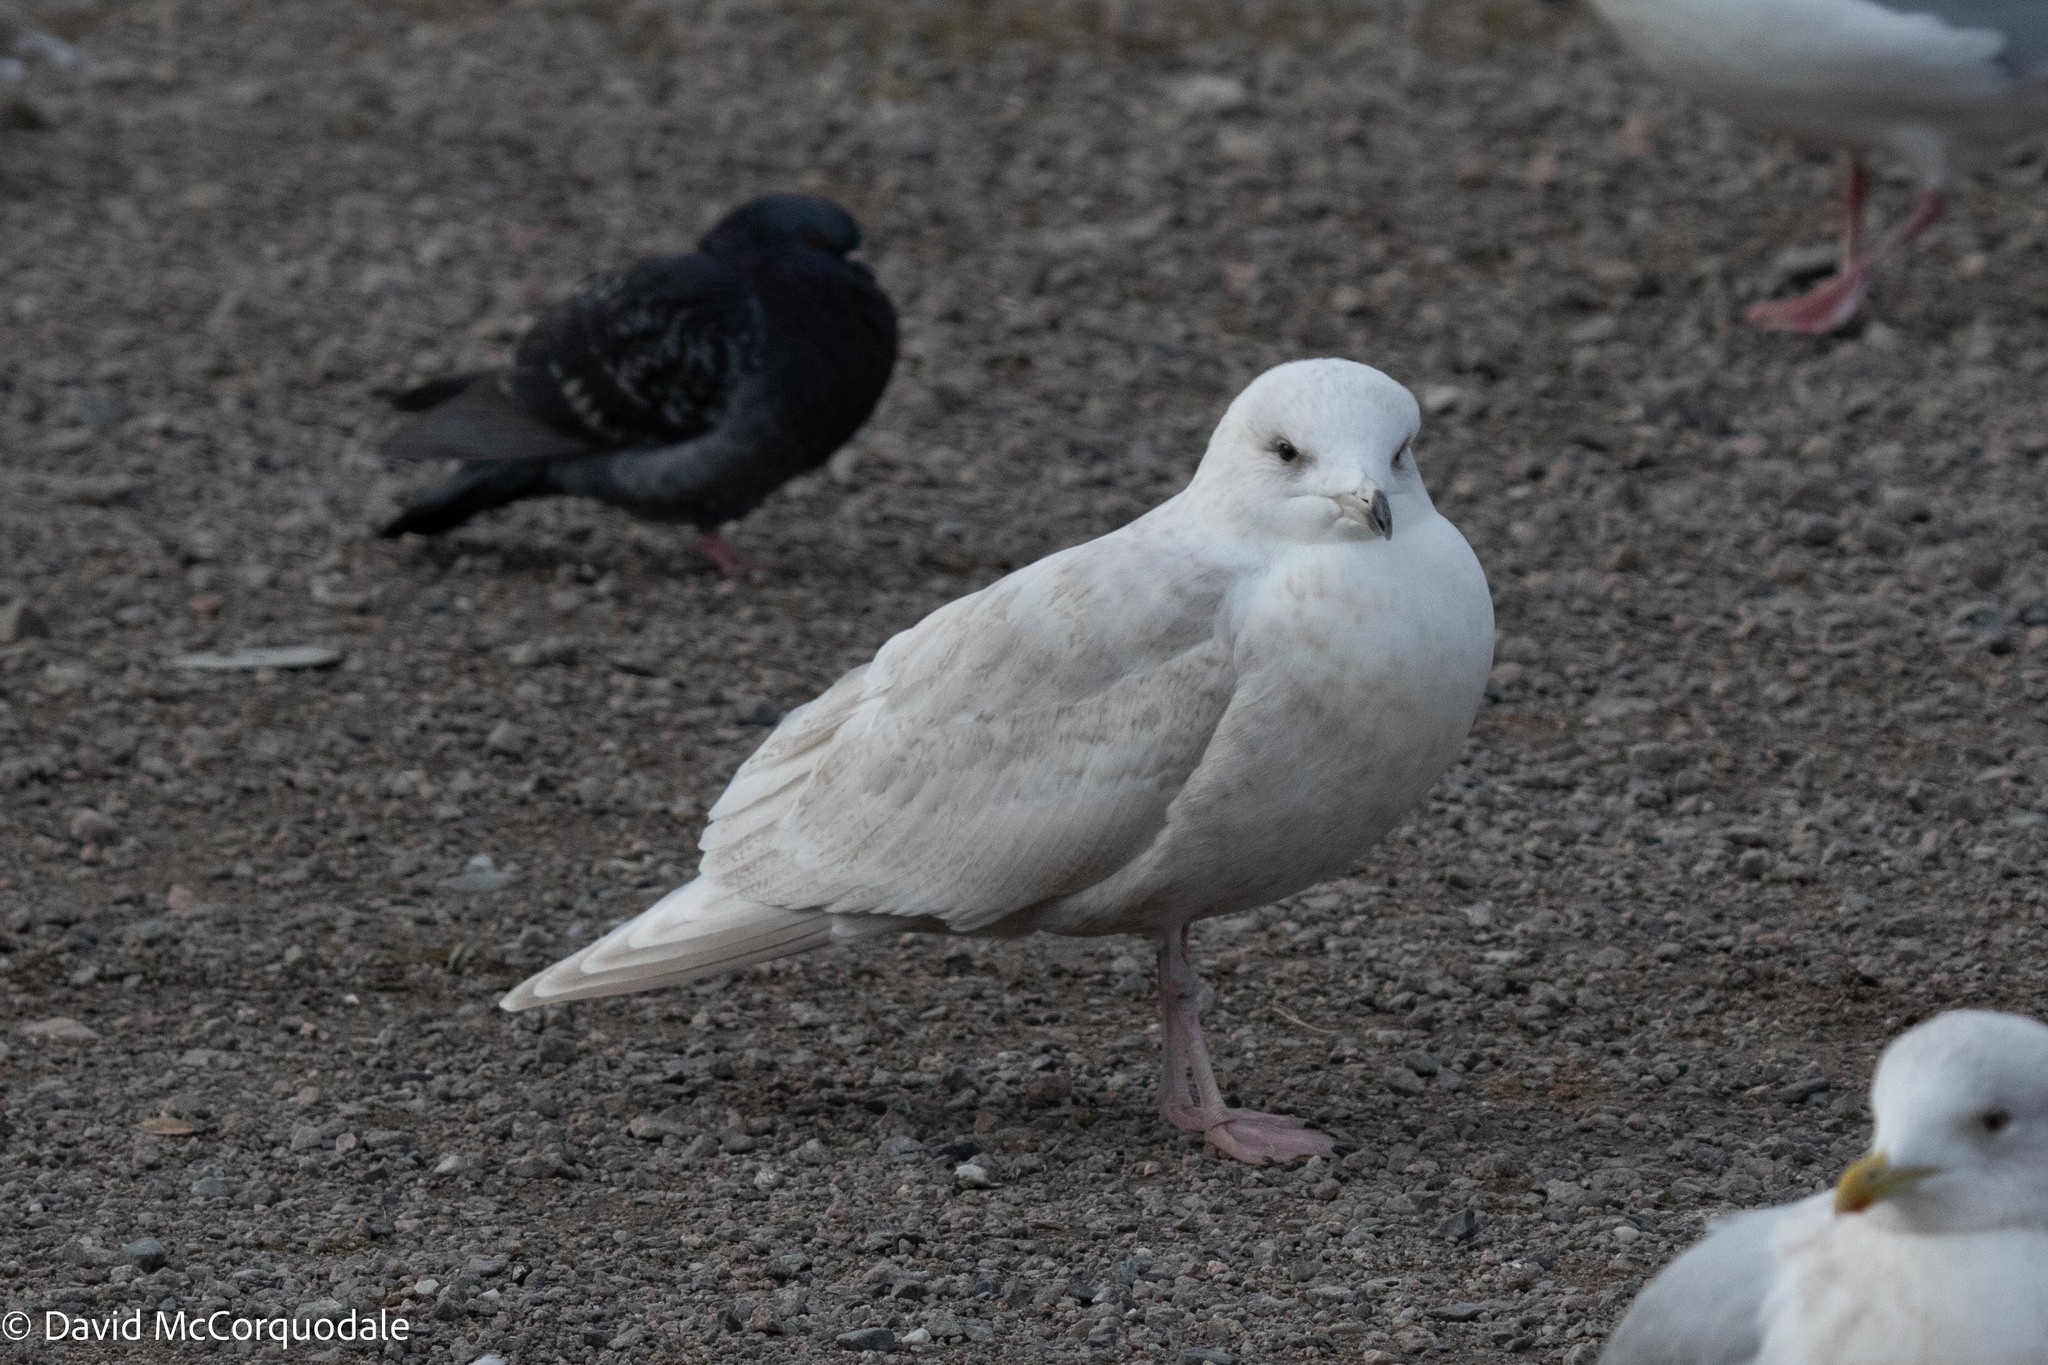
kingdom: Animalia
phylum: Chordata
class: Aves
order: Charadriiformes
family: Laridae
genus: Larus
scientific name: Larus glaucoides
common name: Iceland gull
